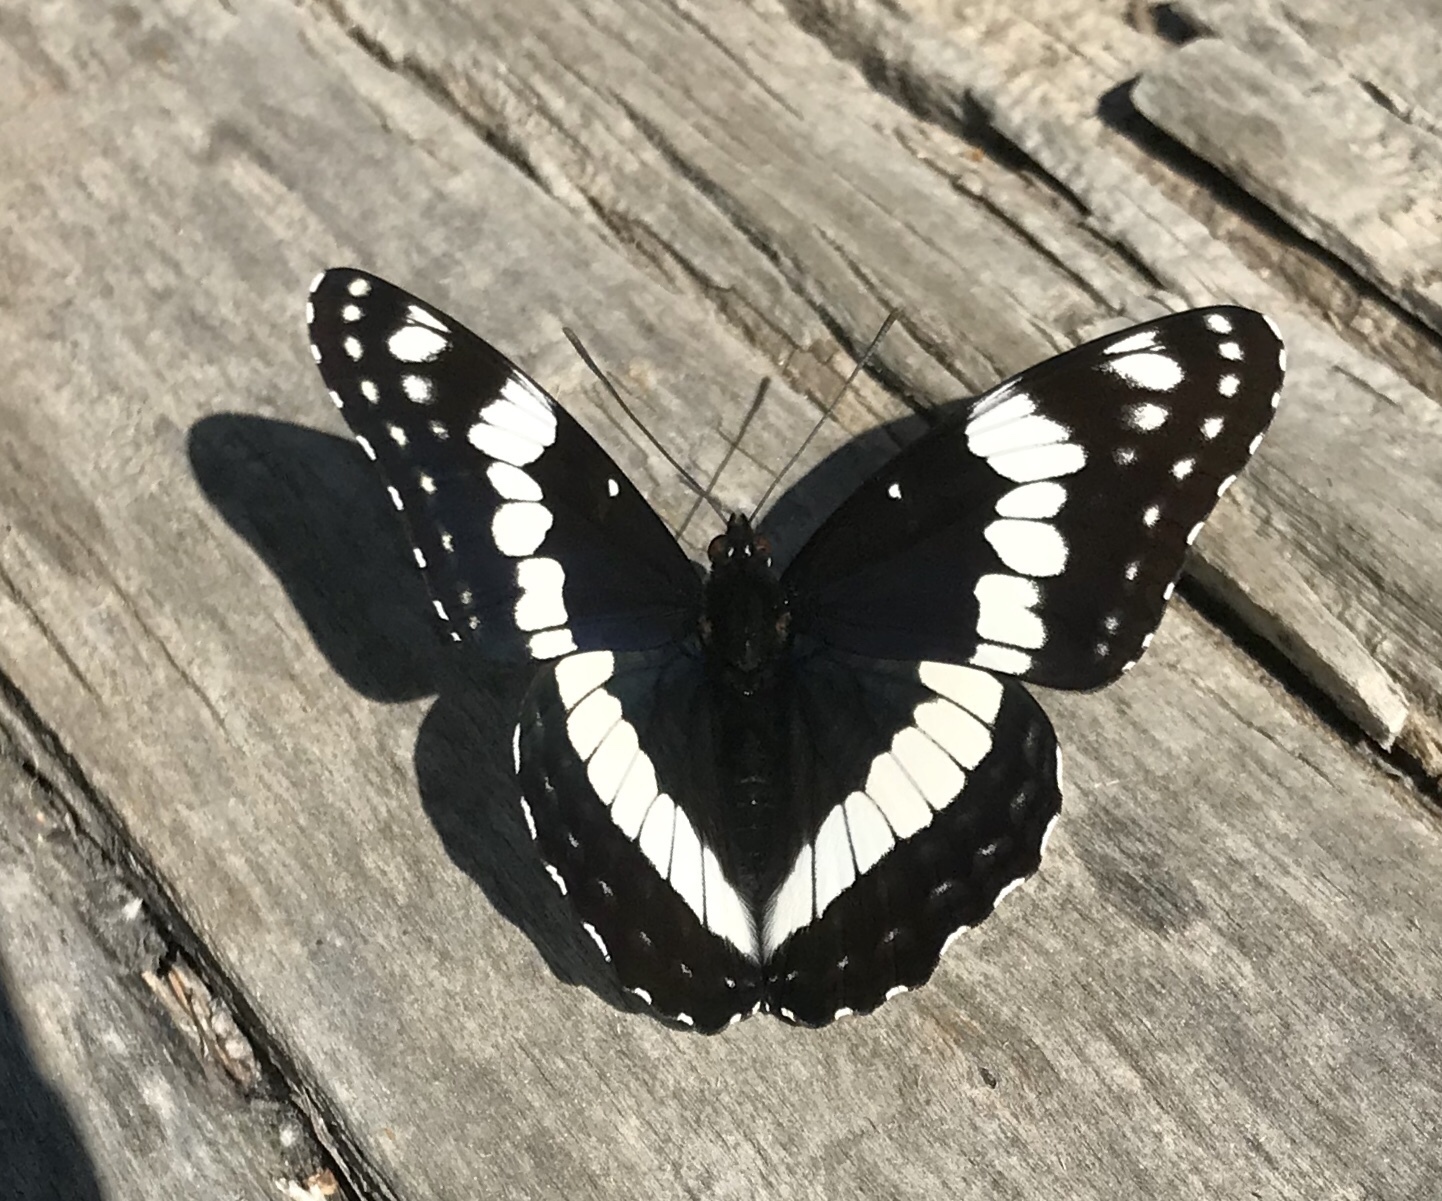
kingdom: Animalia
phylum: Arthropoda
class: Insecta
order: Lepidoptera
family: Nymphalidae
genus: Limenitis
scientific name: Limenitis weidemeyerii
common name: Weidemeyer's admiral
